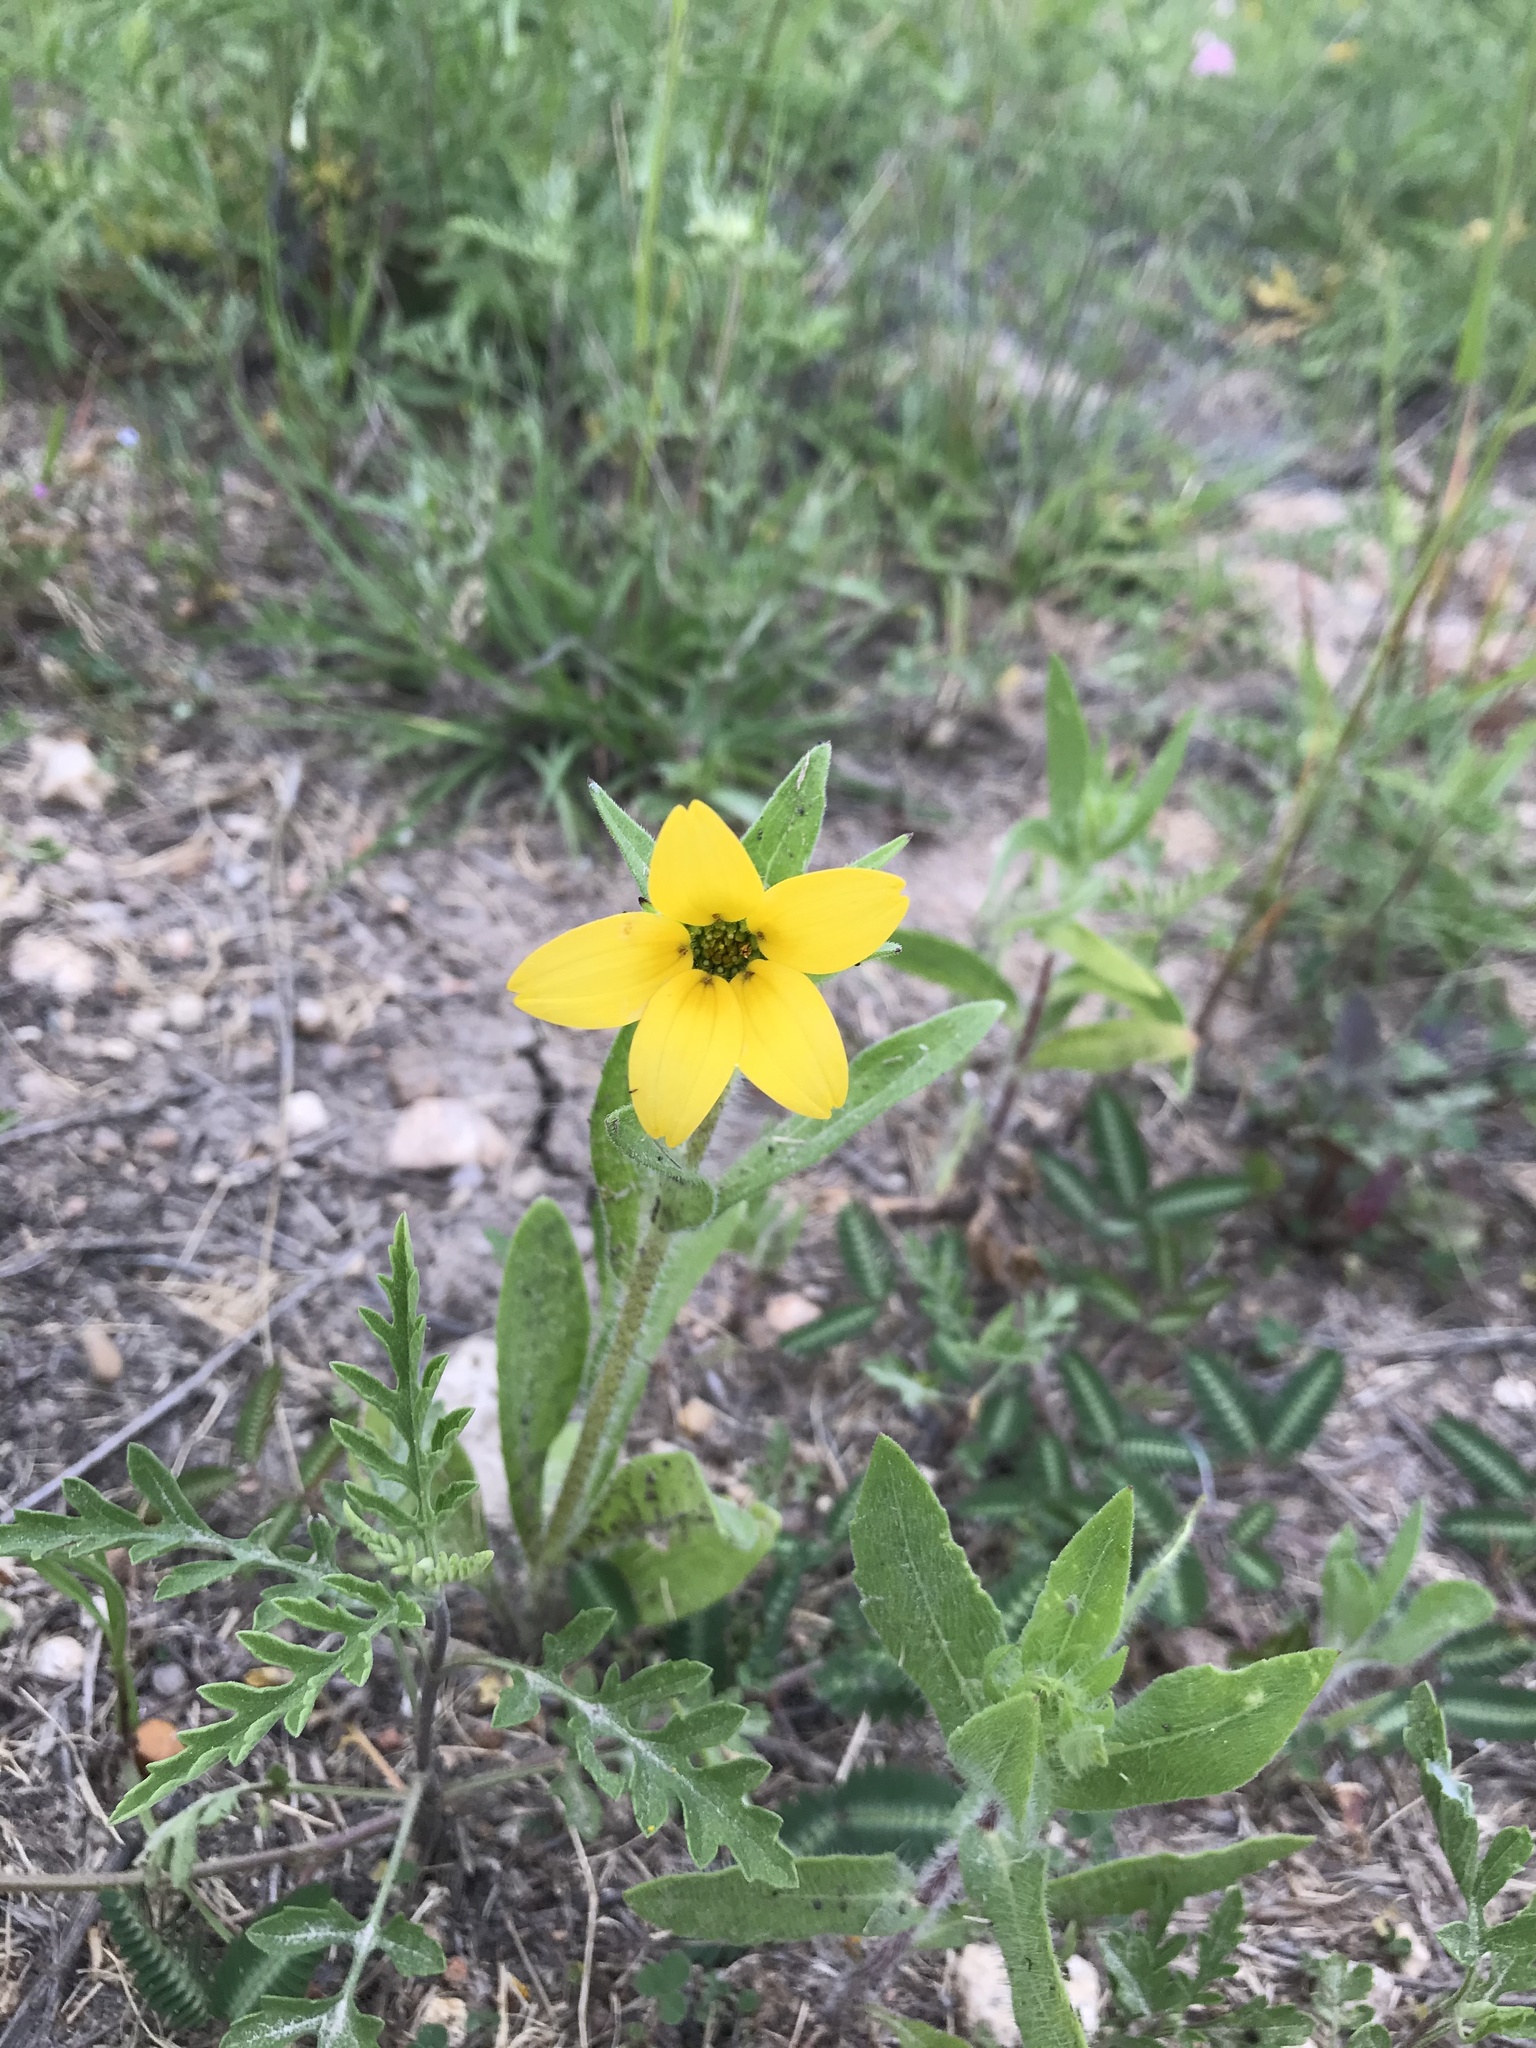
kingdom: Plantae
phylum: Tracheophyta
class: Magnoliopsida
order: Asterales
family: Asteraceae
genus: Lindheimera
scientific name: Lindheimera texana
